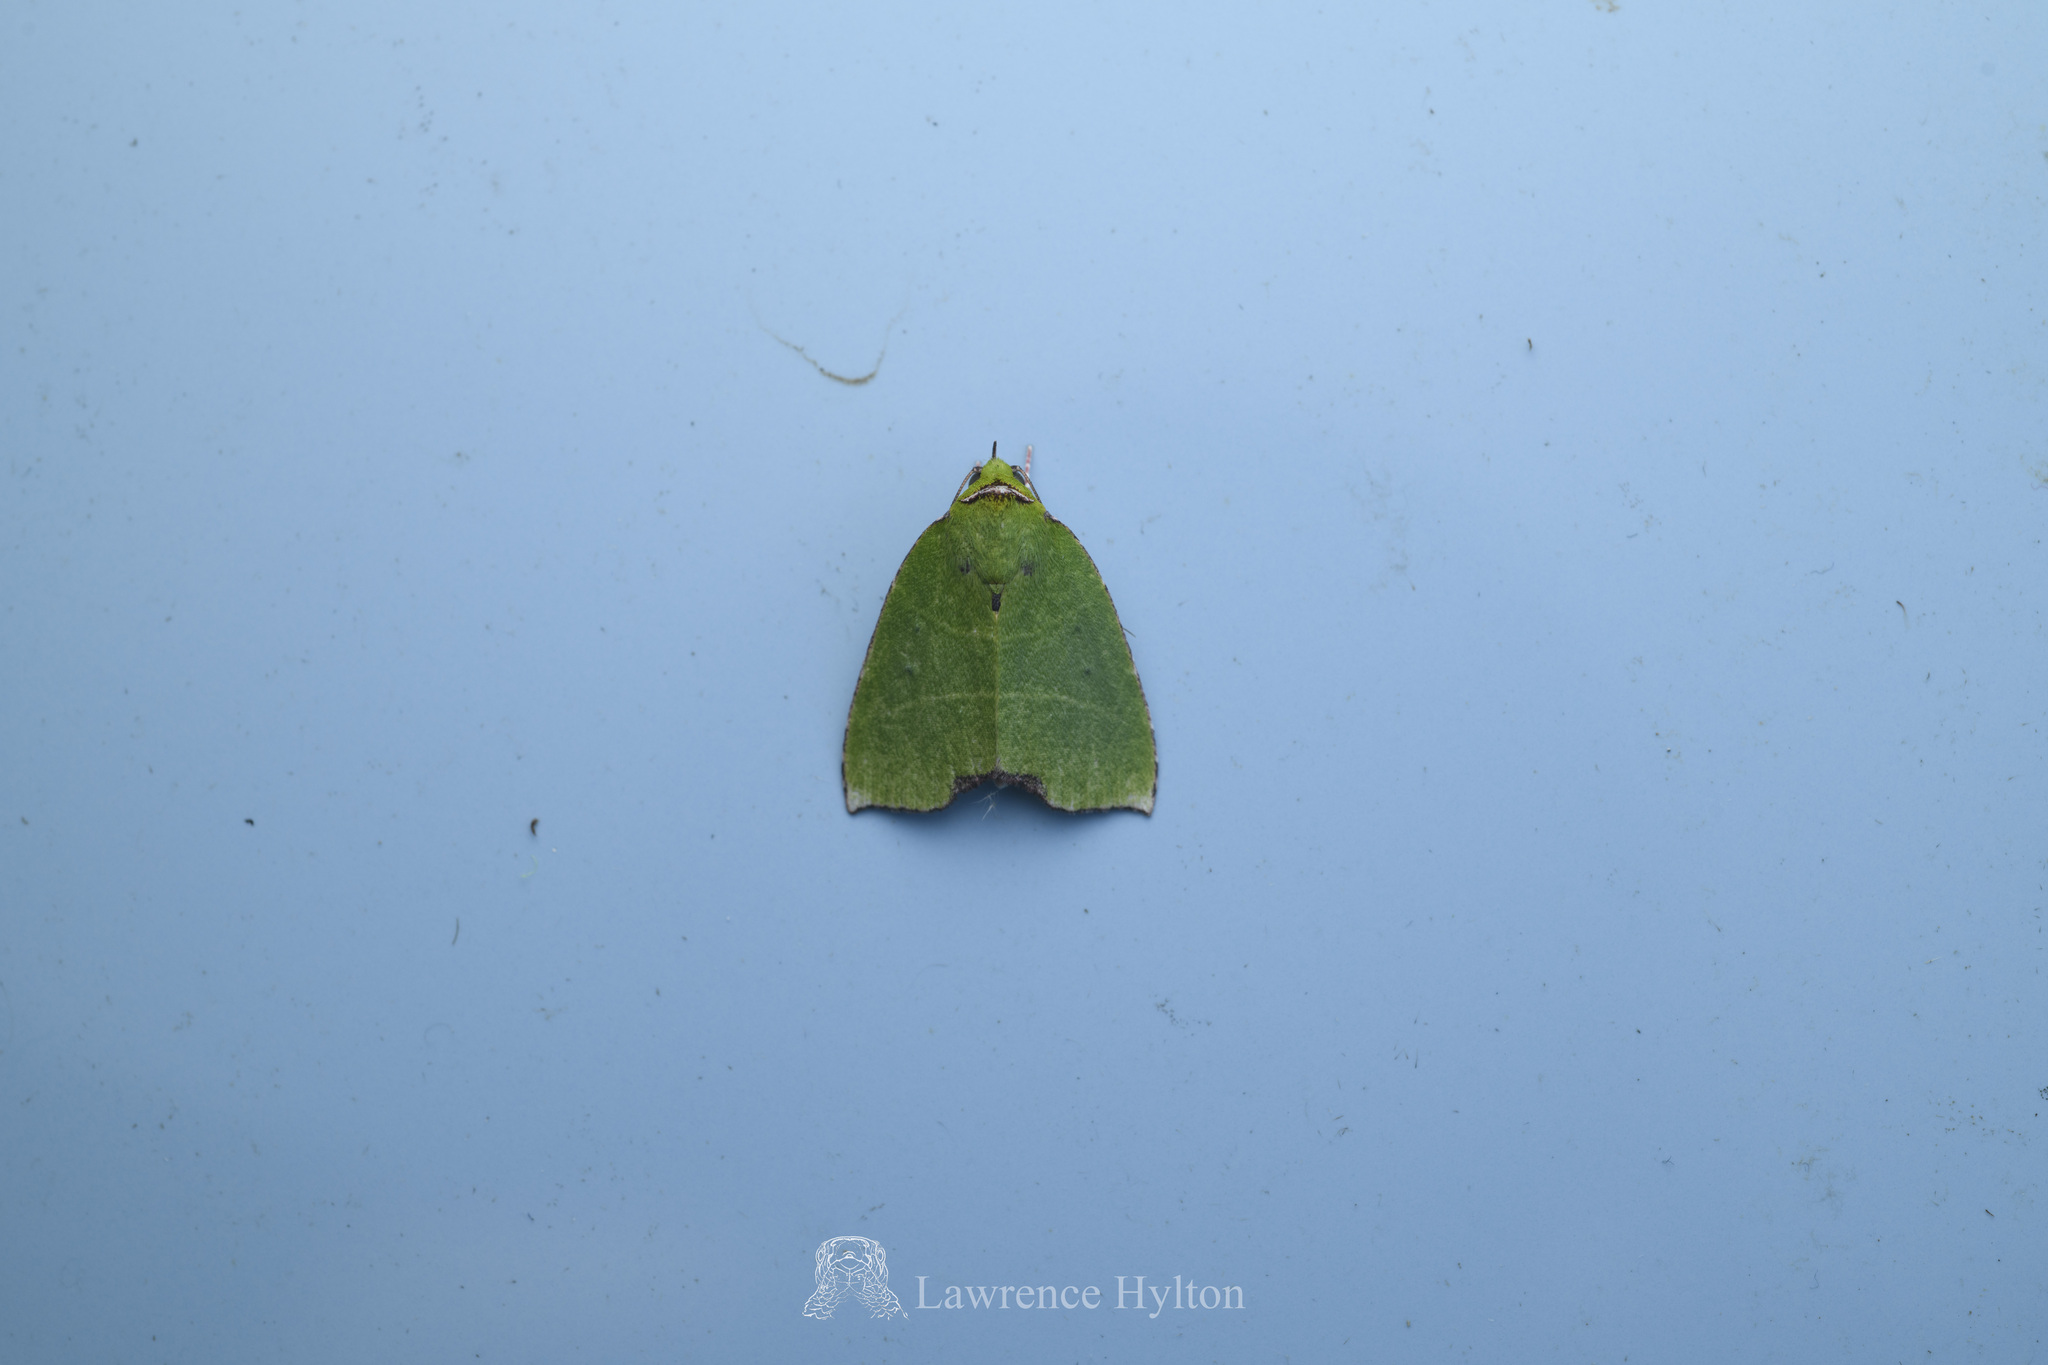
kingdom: Animalia
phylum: Arthropoda
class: Insecta
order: Lepidoptera
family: Nolidae
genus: Paracrama
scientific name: Paracrama angulata
